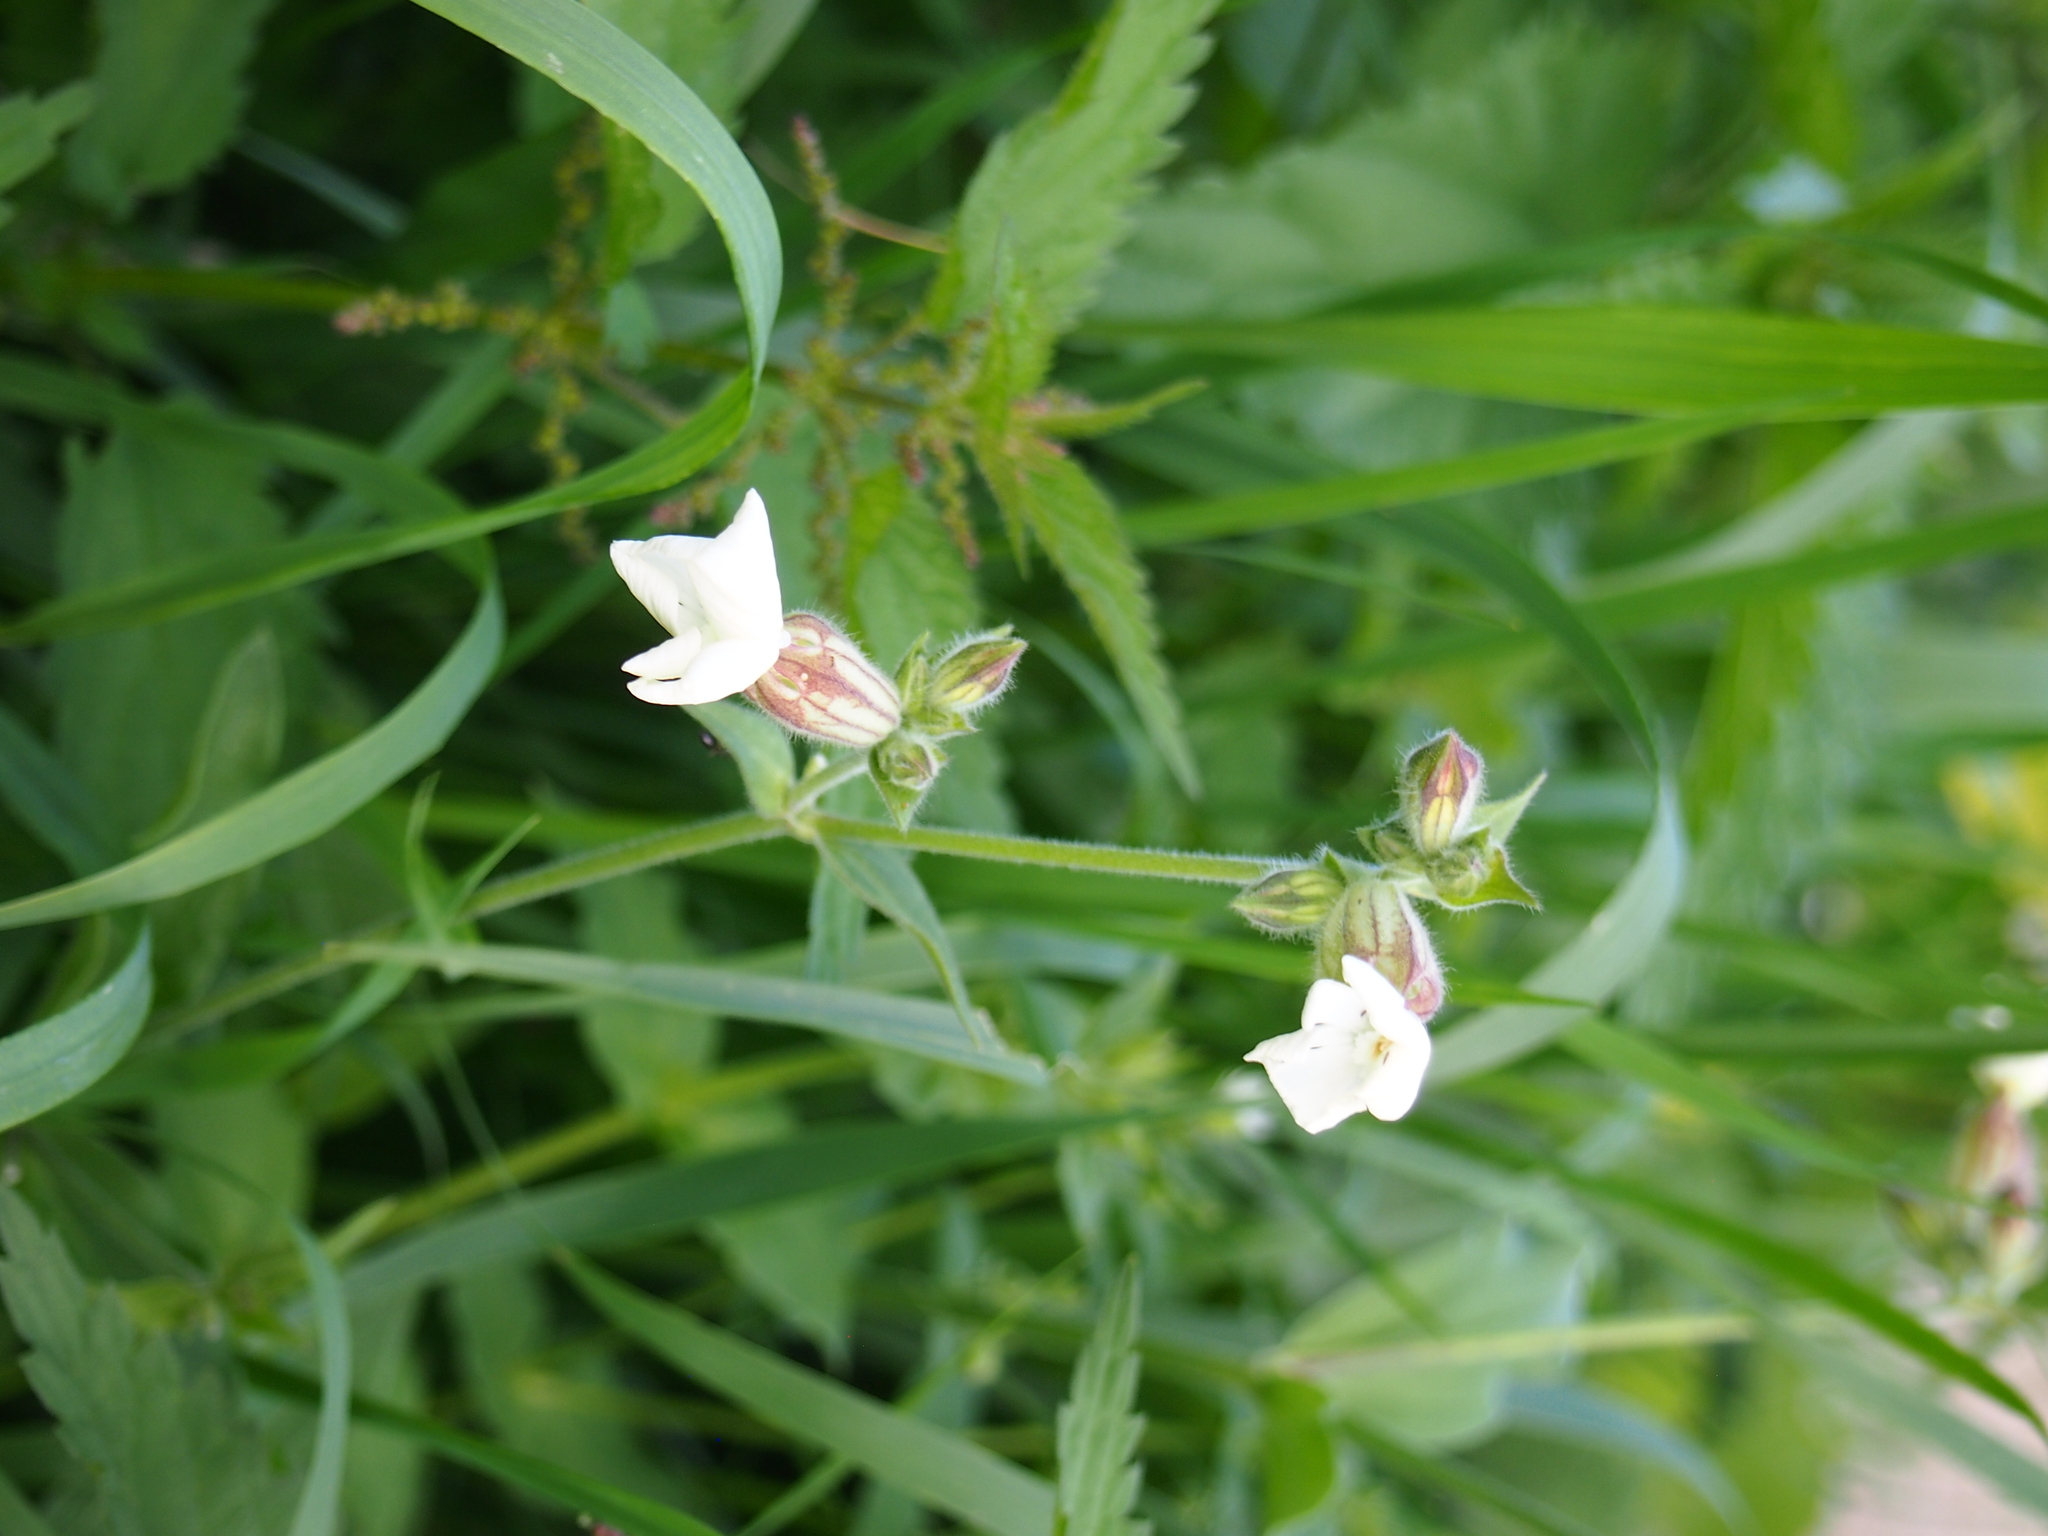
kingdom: Plantae
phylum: Tracheophyta
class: Magnoliopsida
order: Caryophyllales
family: Caryophyllaceae
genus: Silene
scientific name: Silene latifolia
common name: White campion
